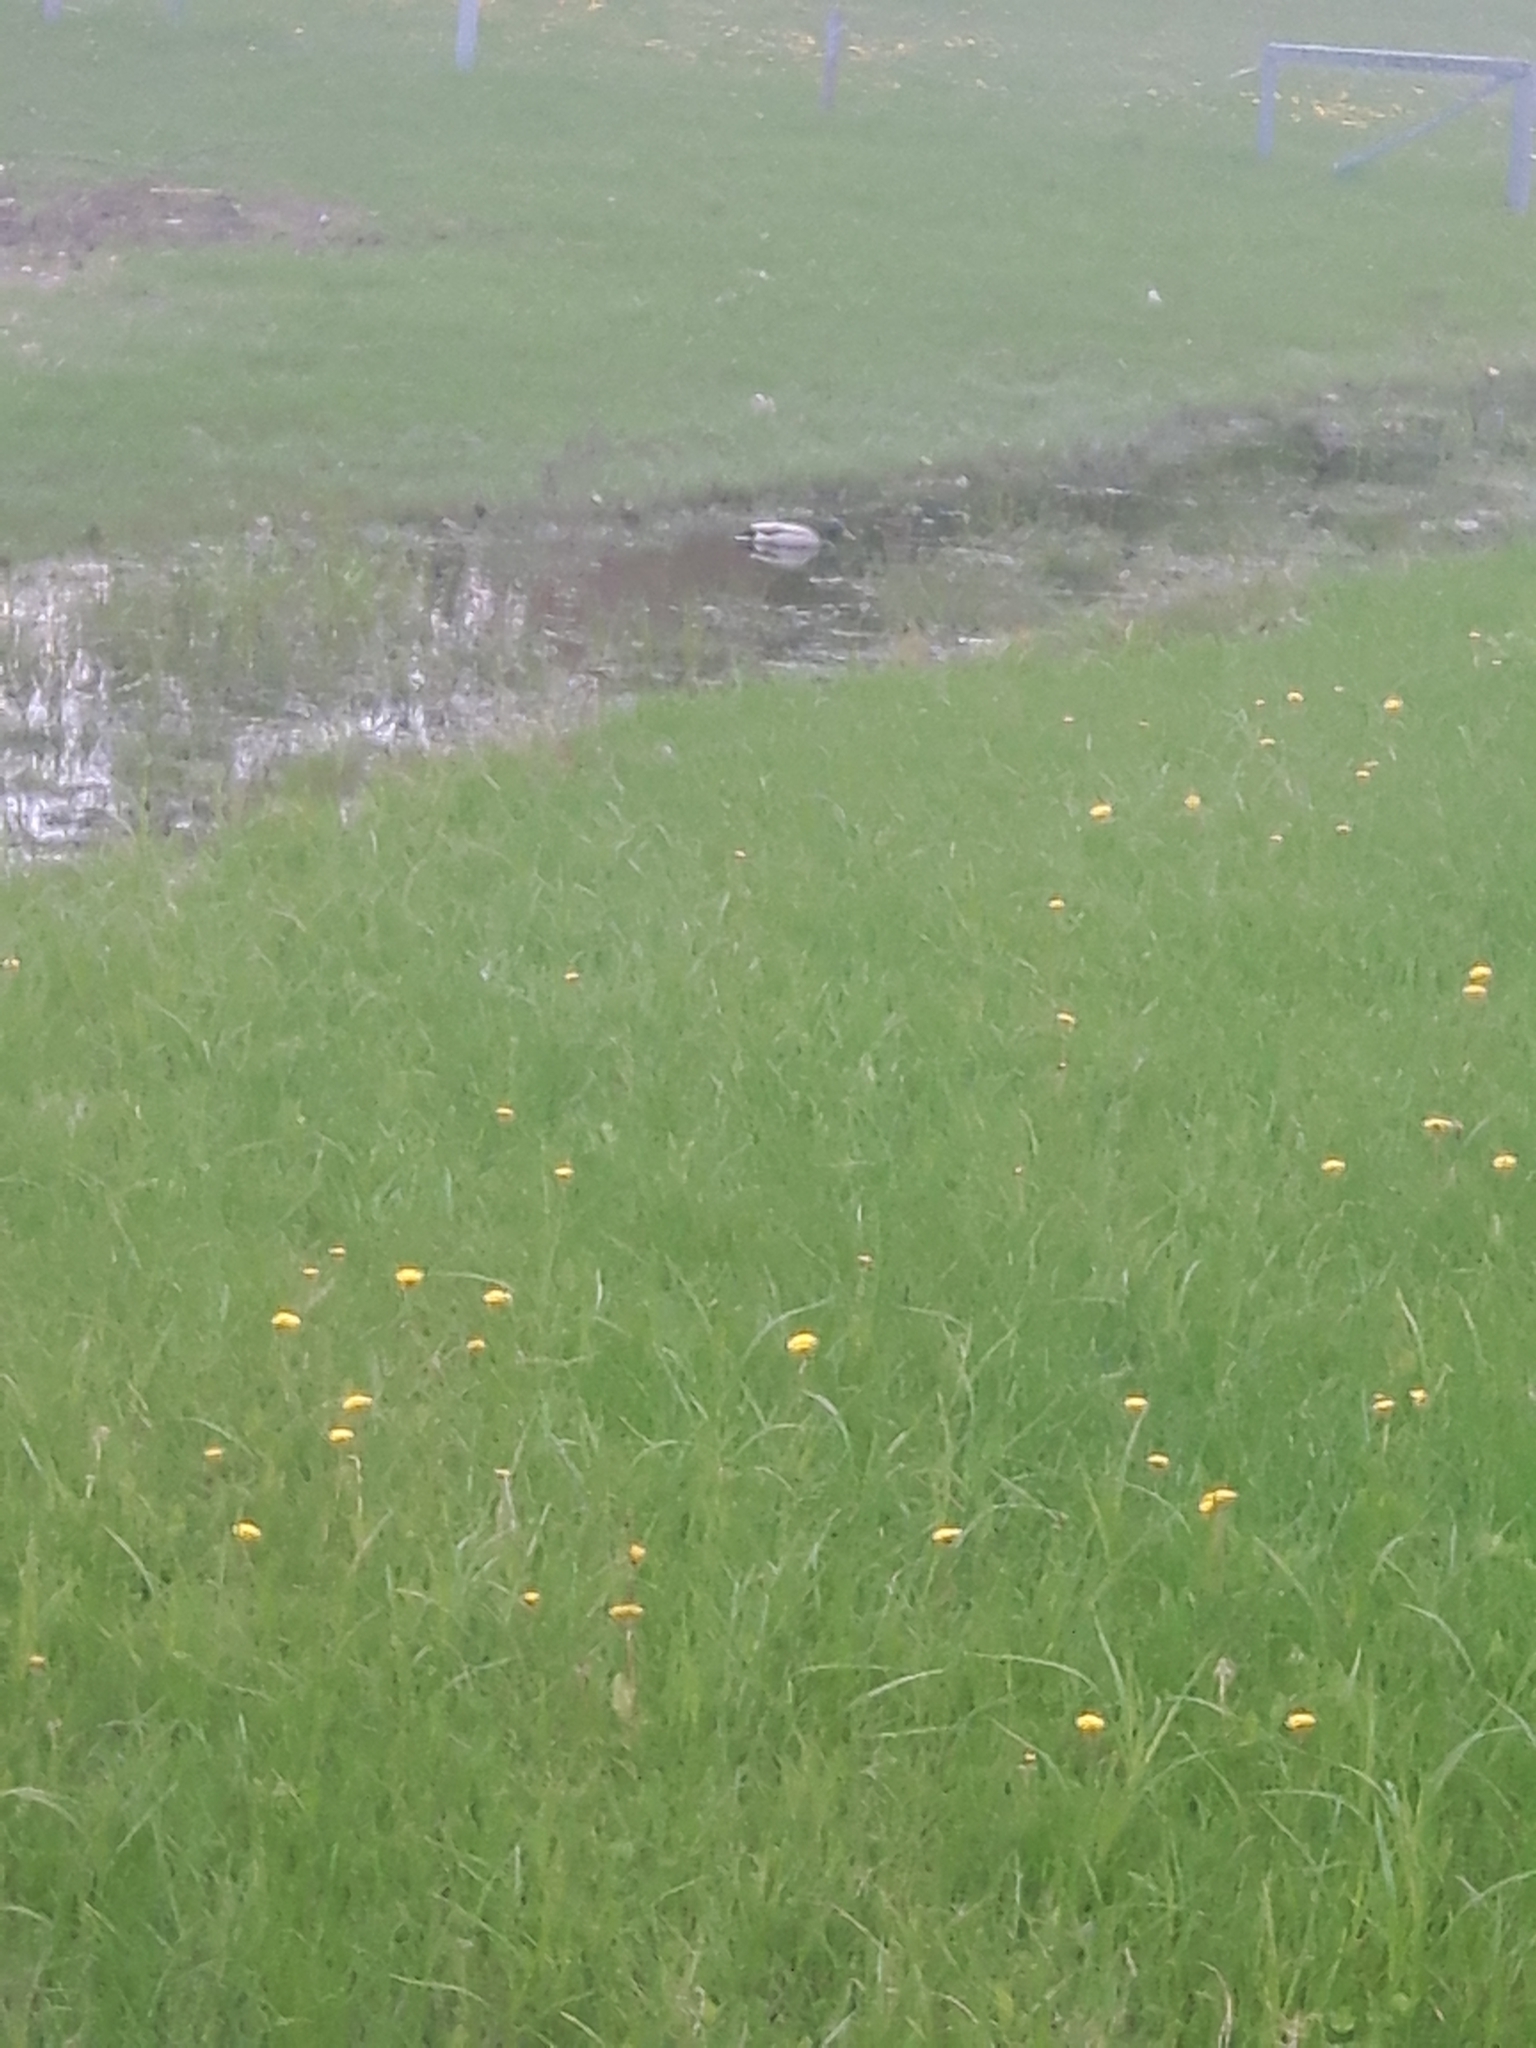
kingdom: Animalia
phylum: Chordata
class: Aves
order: Anseriformes
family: Anatidae
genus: Anas
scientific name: Anas platyrhynchos
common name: Mallard
